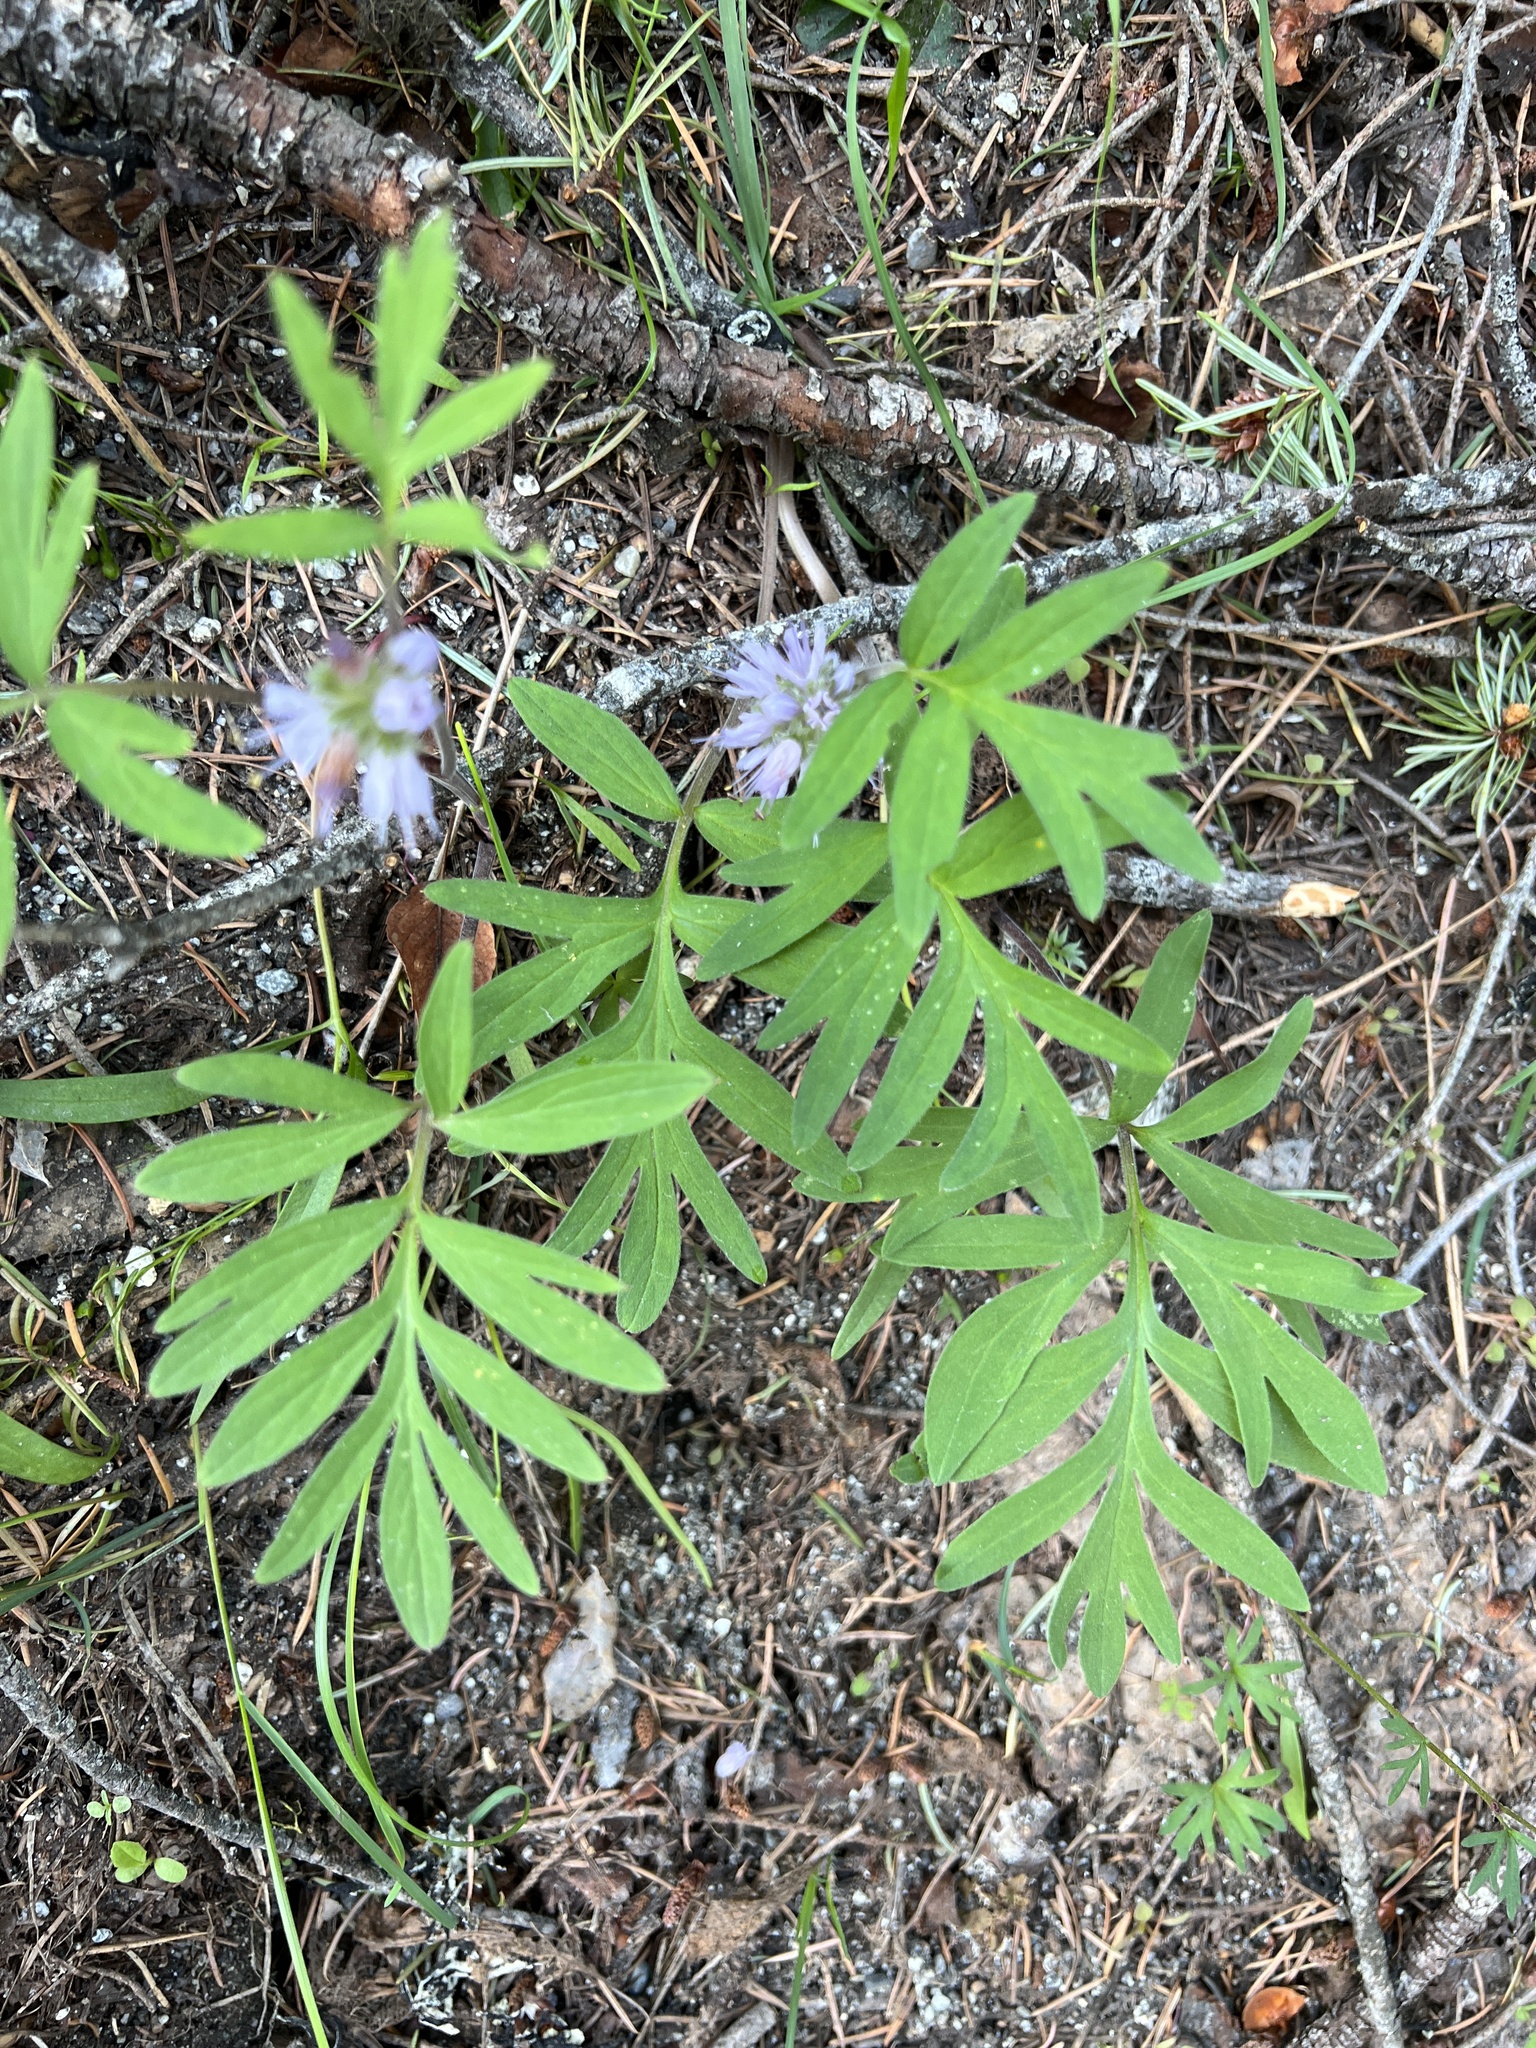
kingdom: Plantae
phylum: Tracheophyta
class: Magnoliopsida
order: Boraginales
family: Hydrophyllaceae
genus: Hydrophyllum
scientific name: Hydrophyllum capitatum
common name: Woollen-breeches
